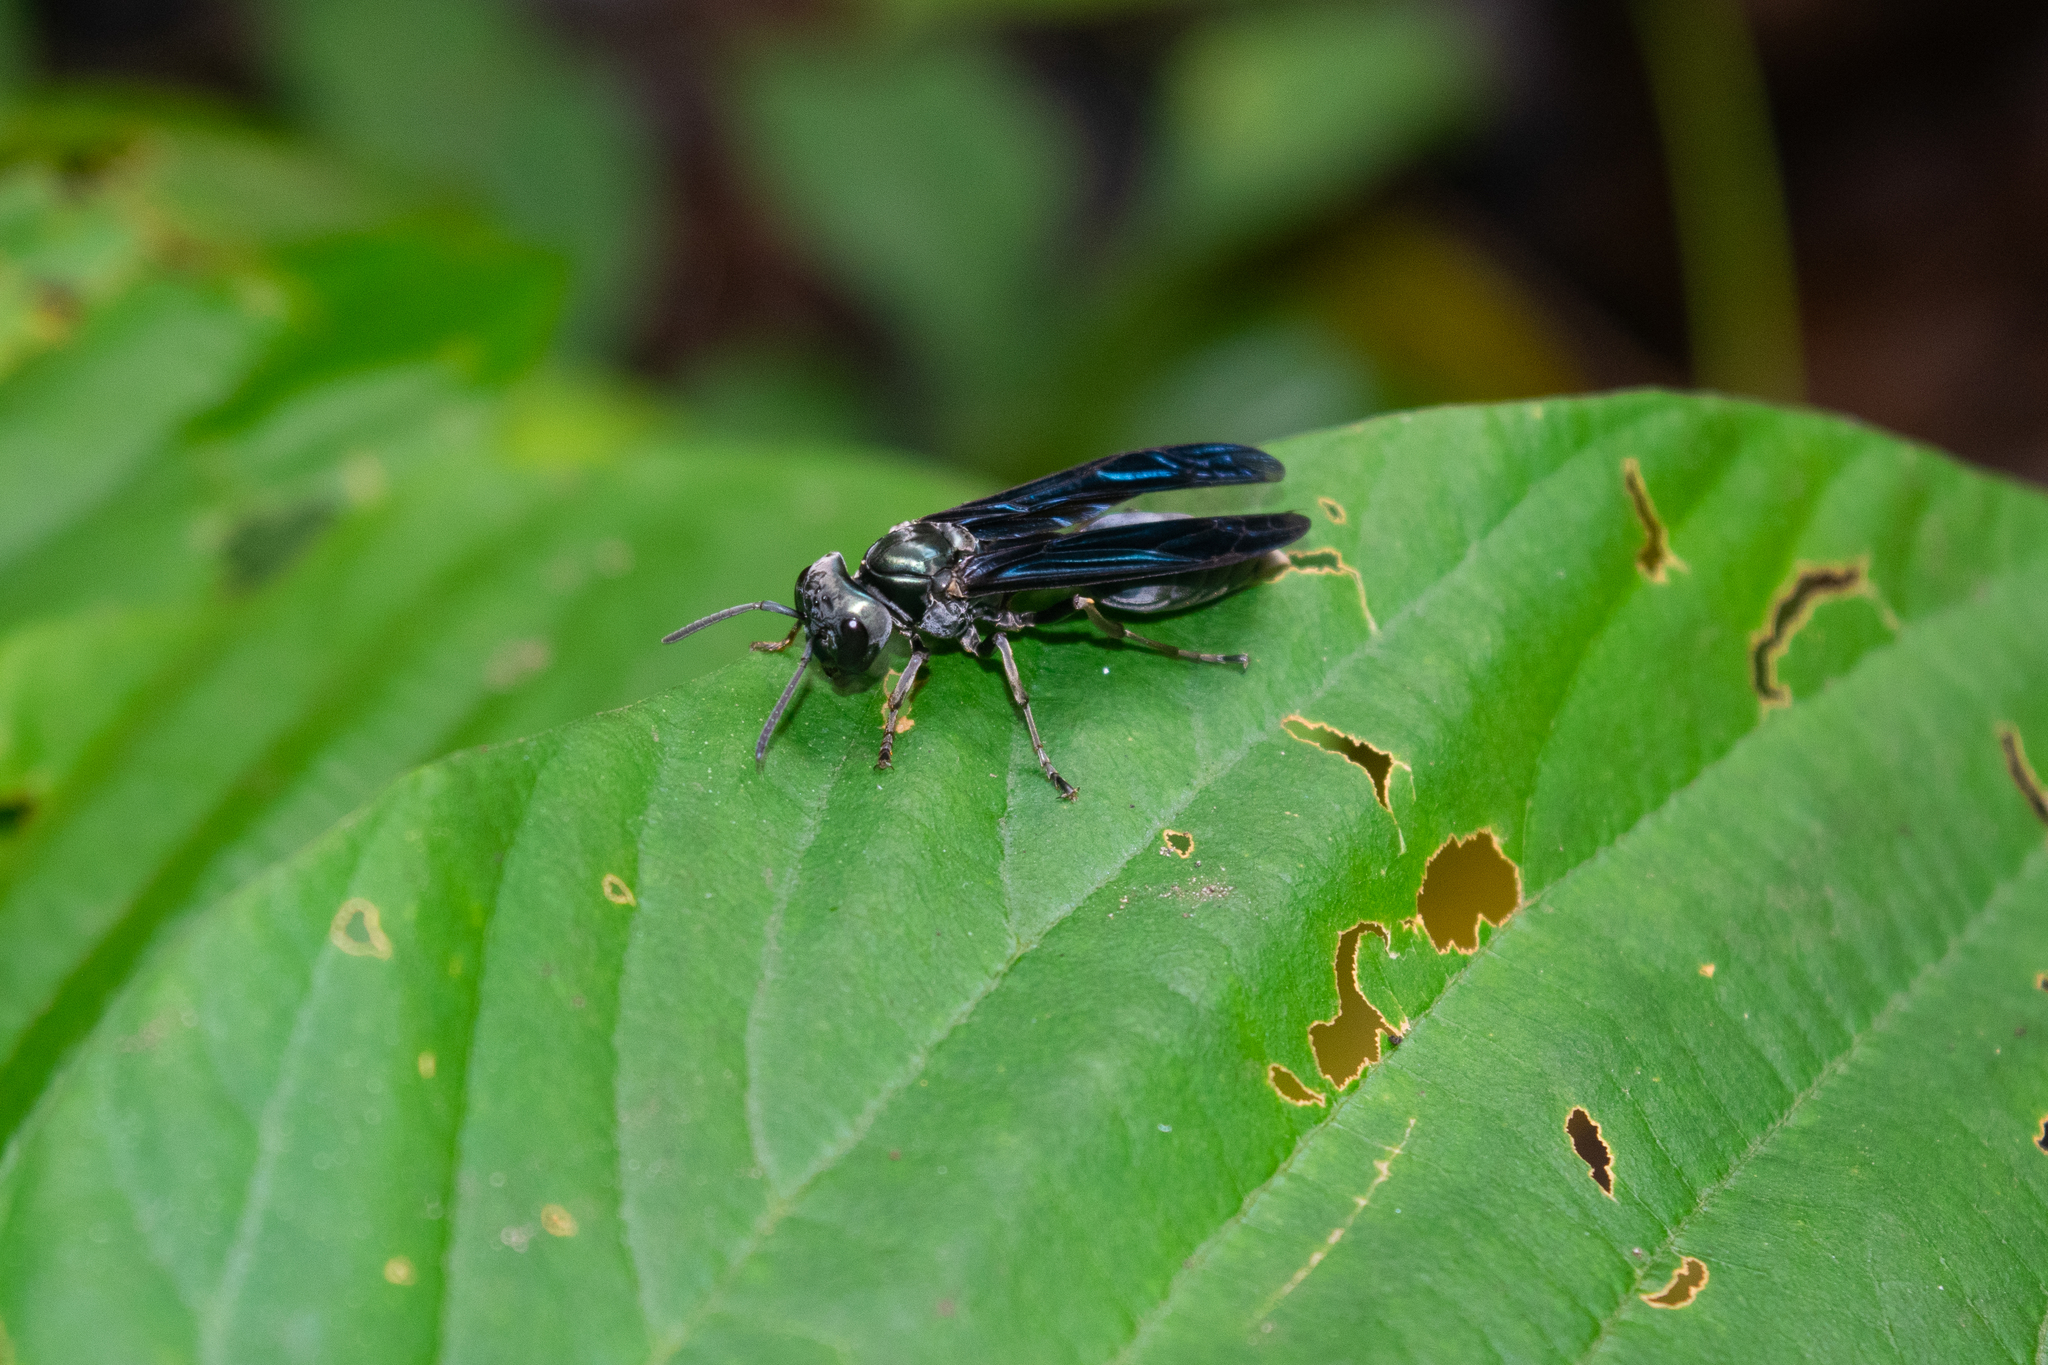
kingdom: Animalia
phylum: Arthropoda
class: Insecta
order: Hymenoptera
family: Vespidae
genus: Synoeca
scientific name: Synoeca septentrionalis
